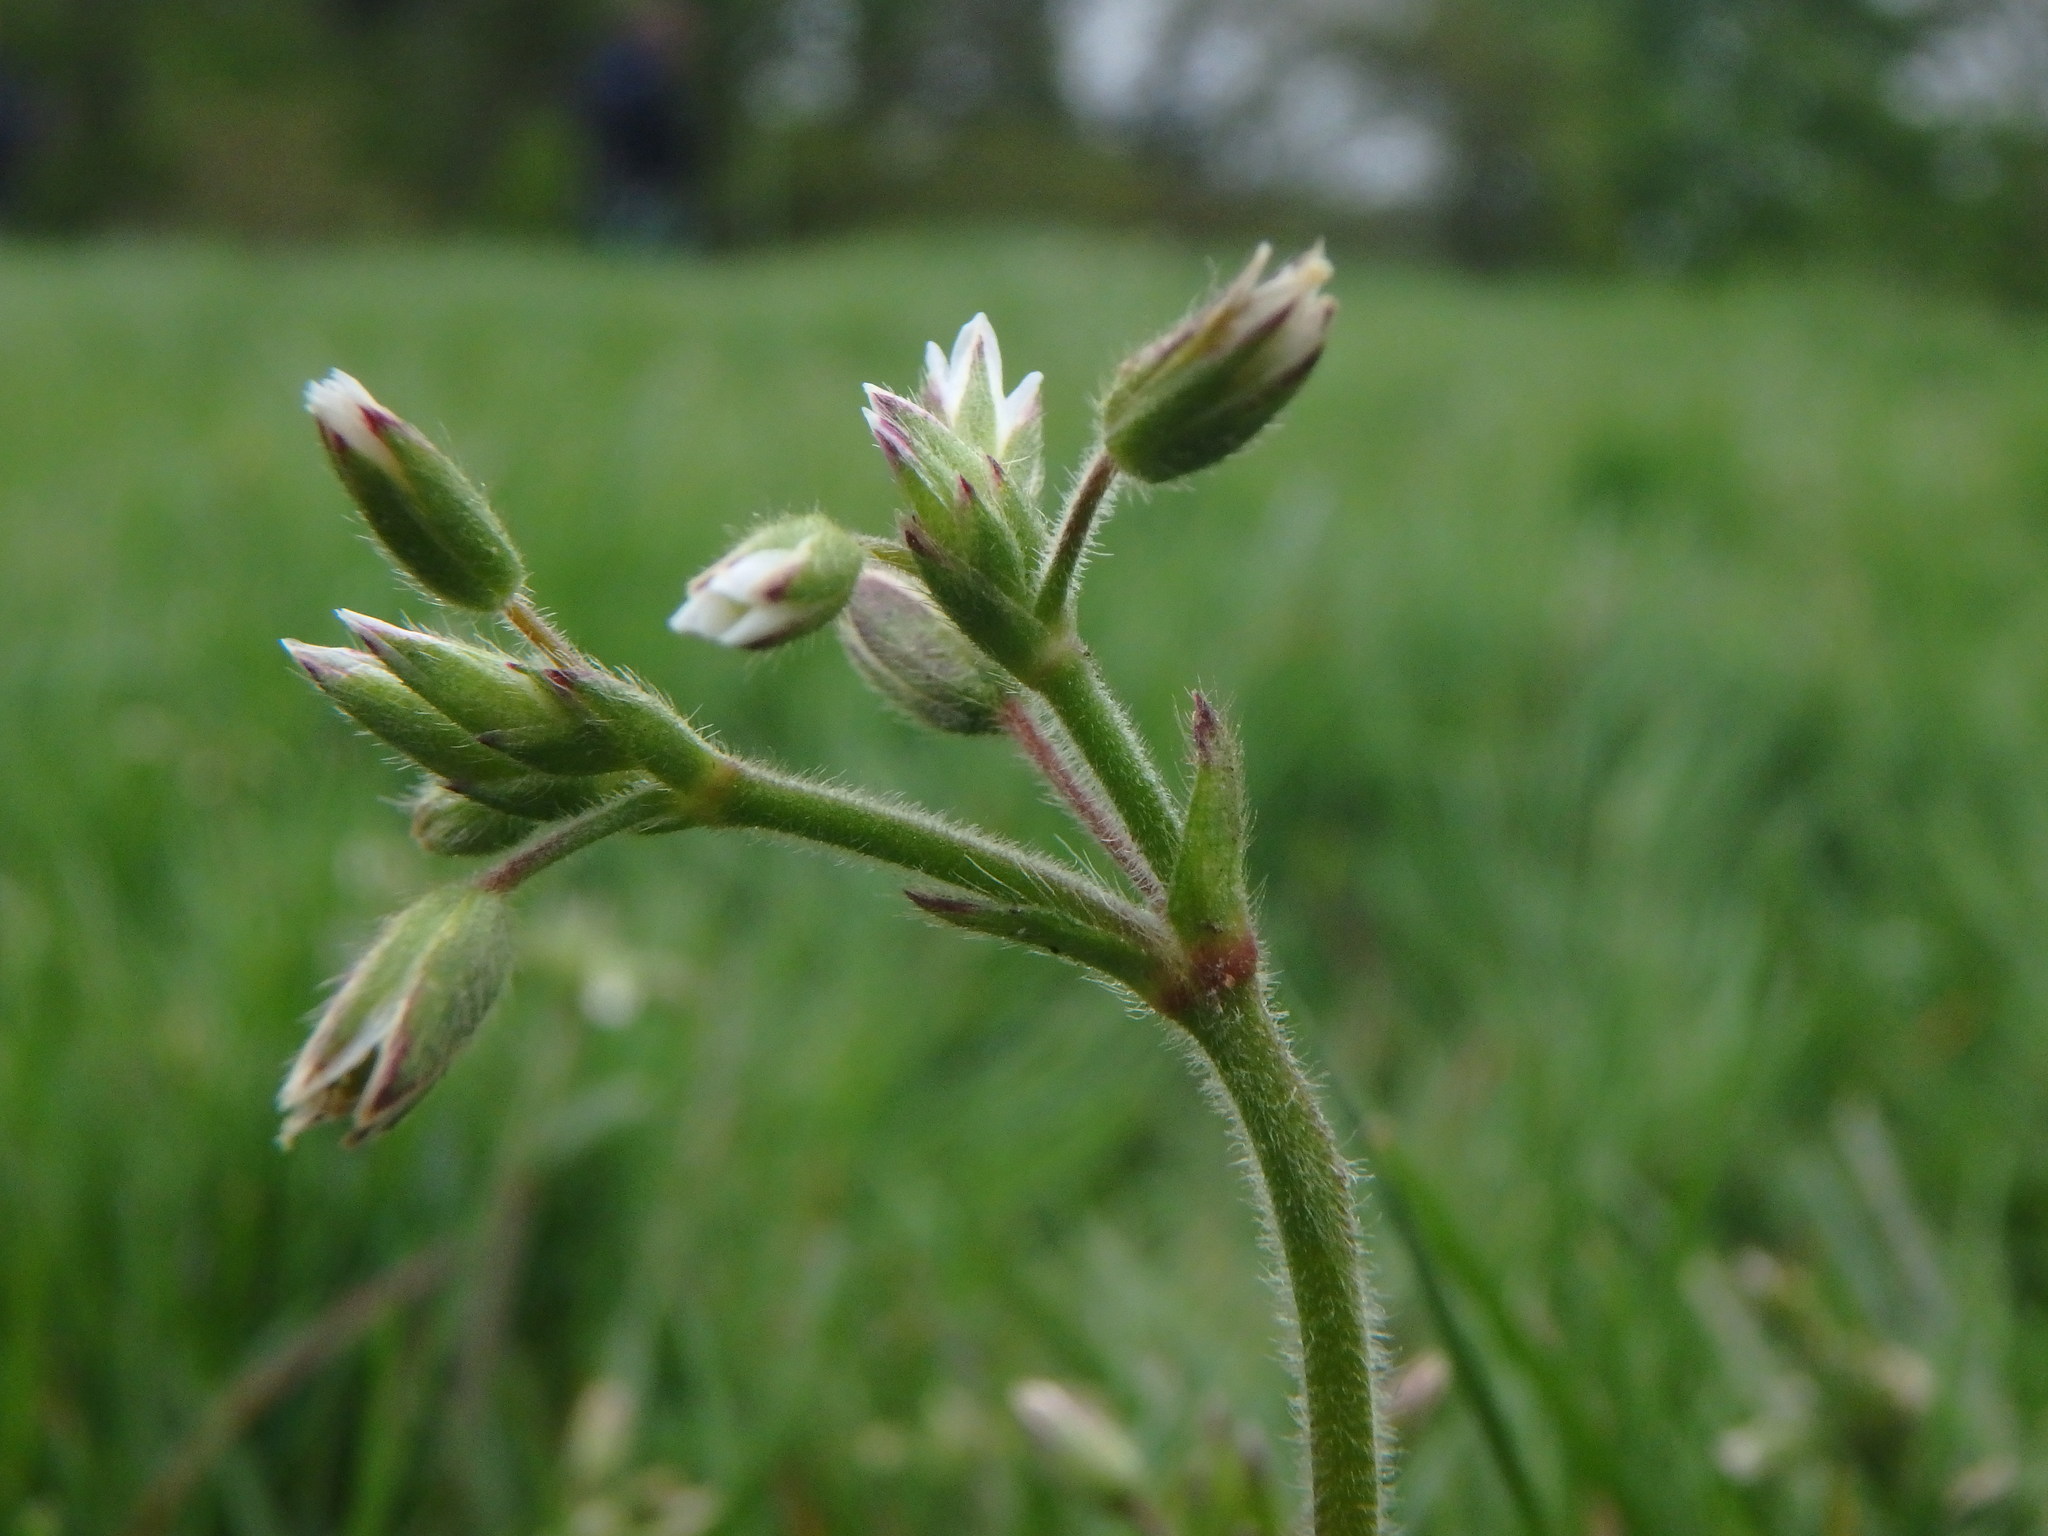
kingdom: Plantae
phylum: Tracheophyta
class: Magnoliopsida
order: Caryophyllales
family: Caryophyllaceae
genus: Cerastium
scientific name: Cerastium fontanum
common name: Common mouse-ear
